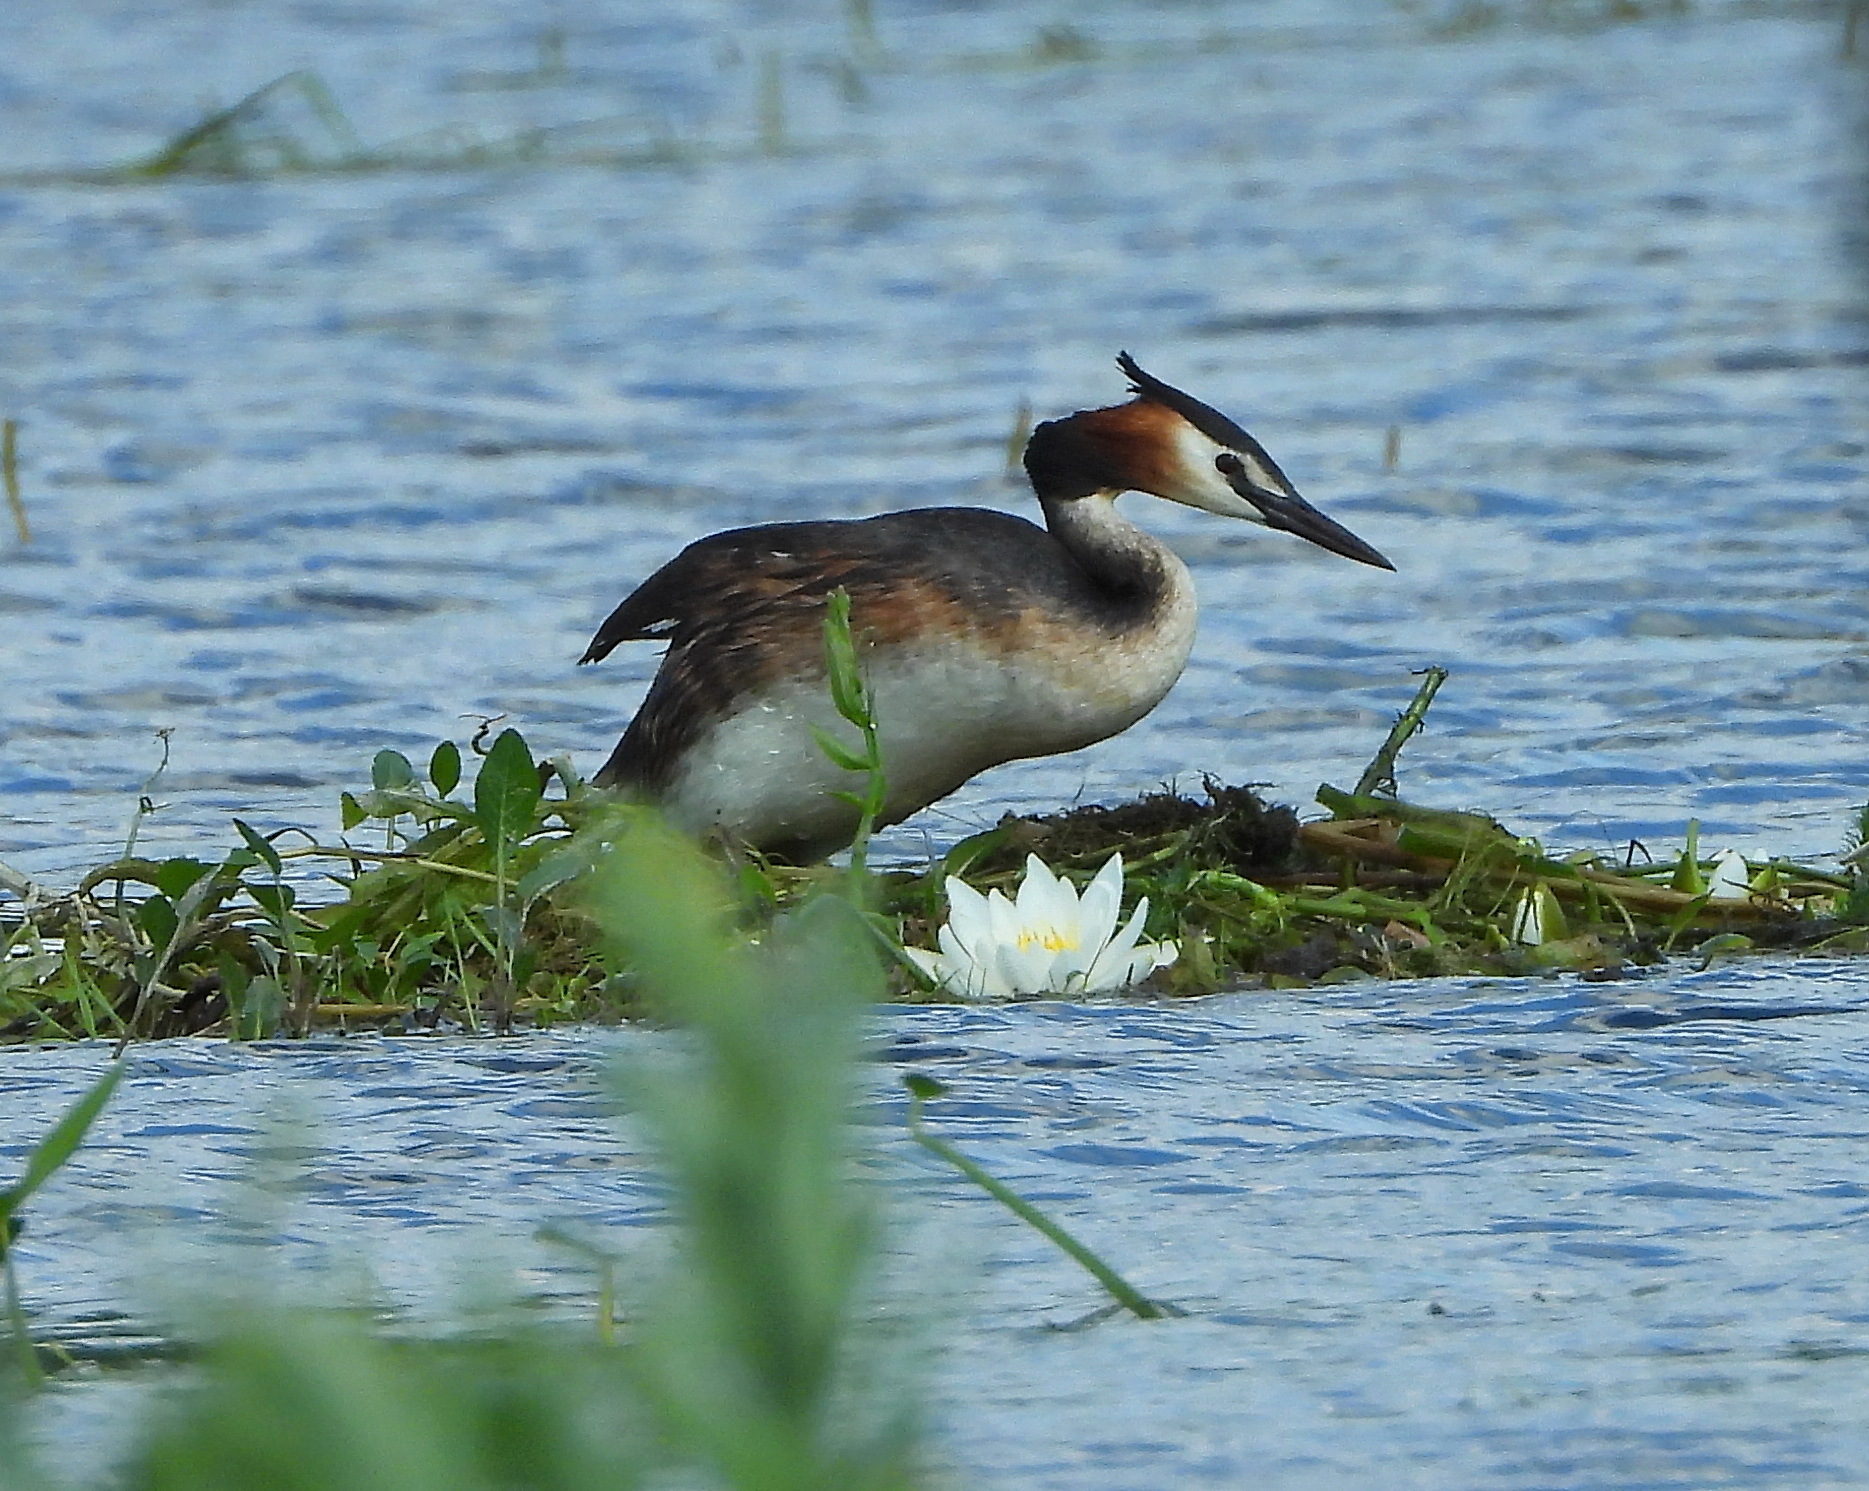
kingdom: Animalia
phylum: Chordata
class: Aves
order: Podicipediformes
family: Podicipedidae
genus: Podiceps
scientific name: Podiceps cristatus
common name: Great crested grebe
